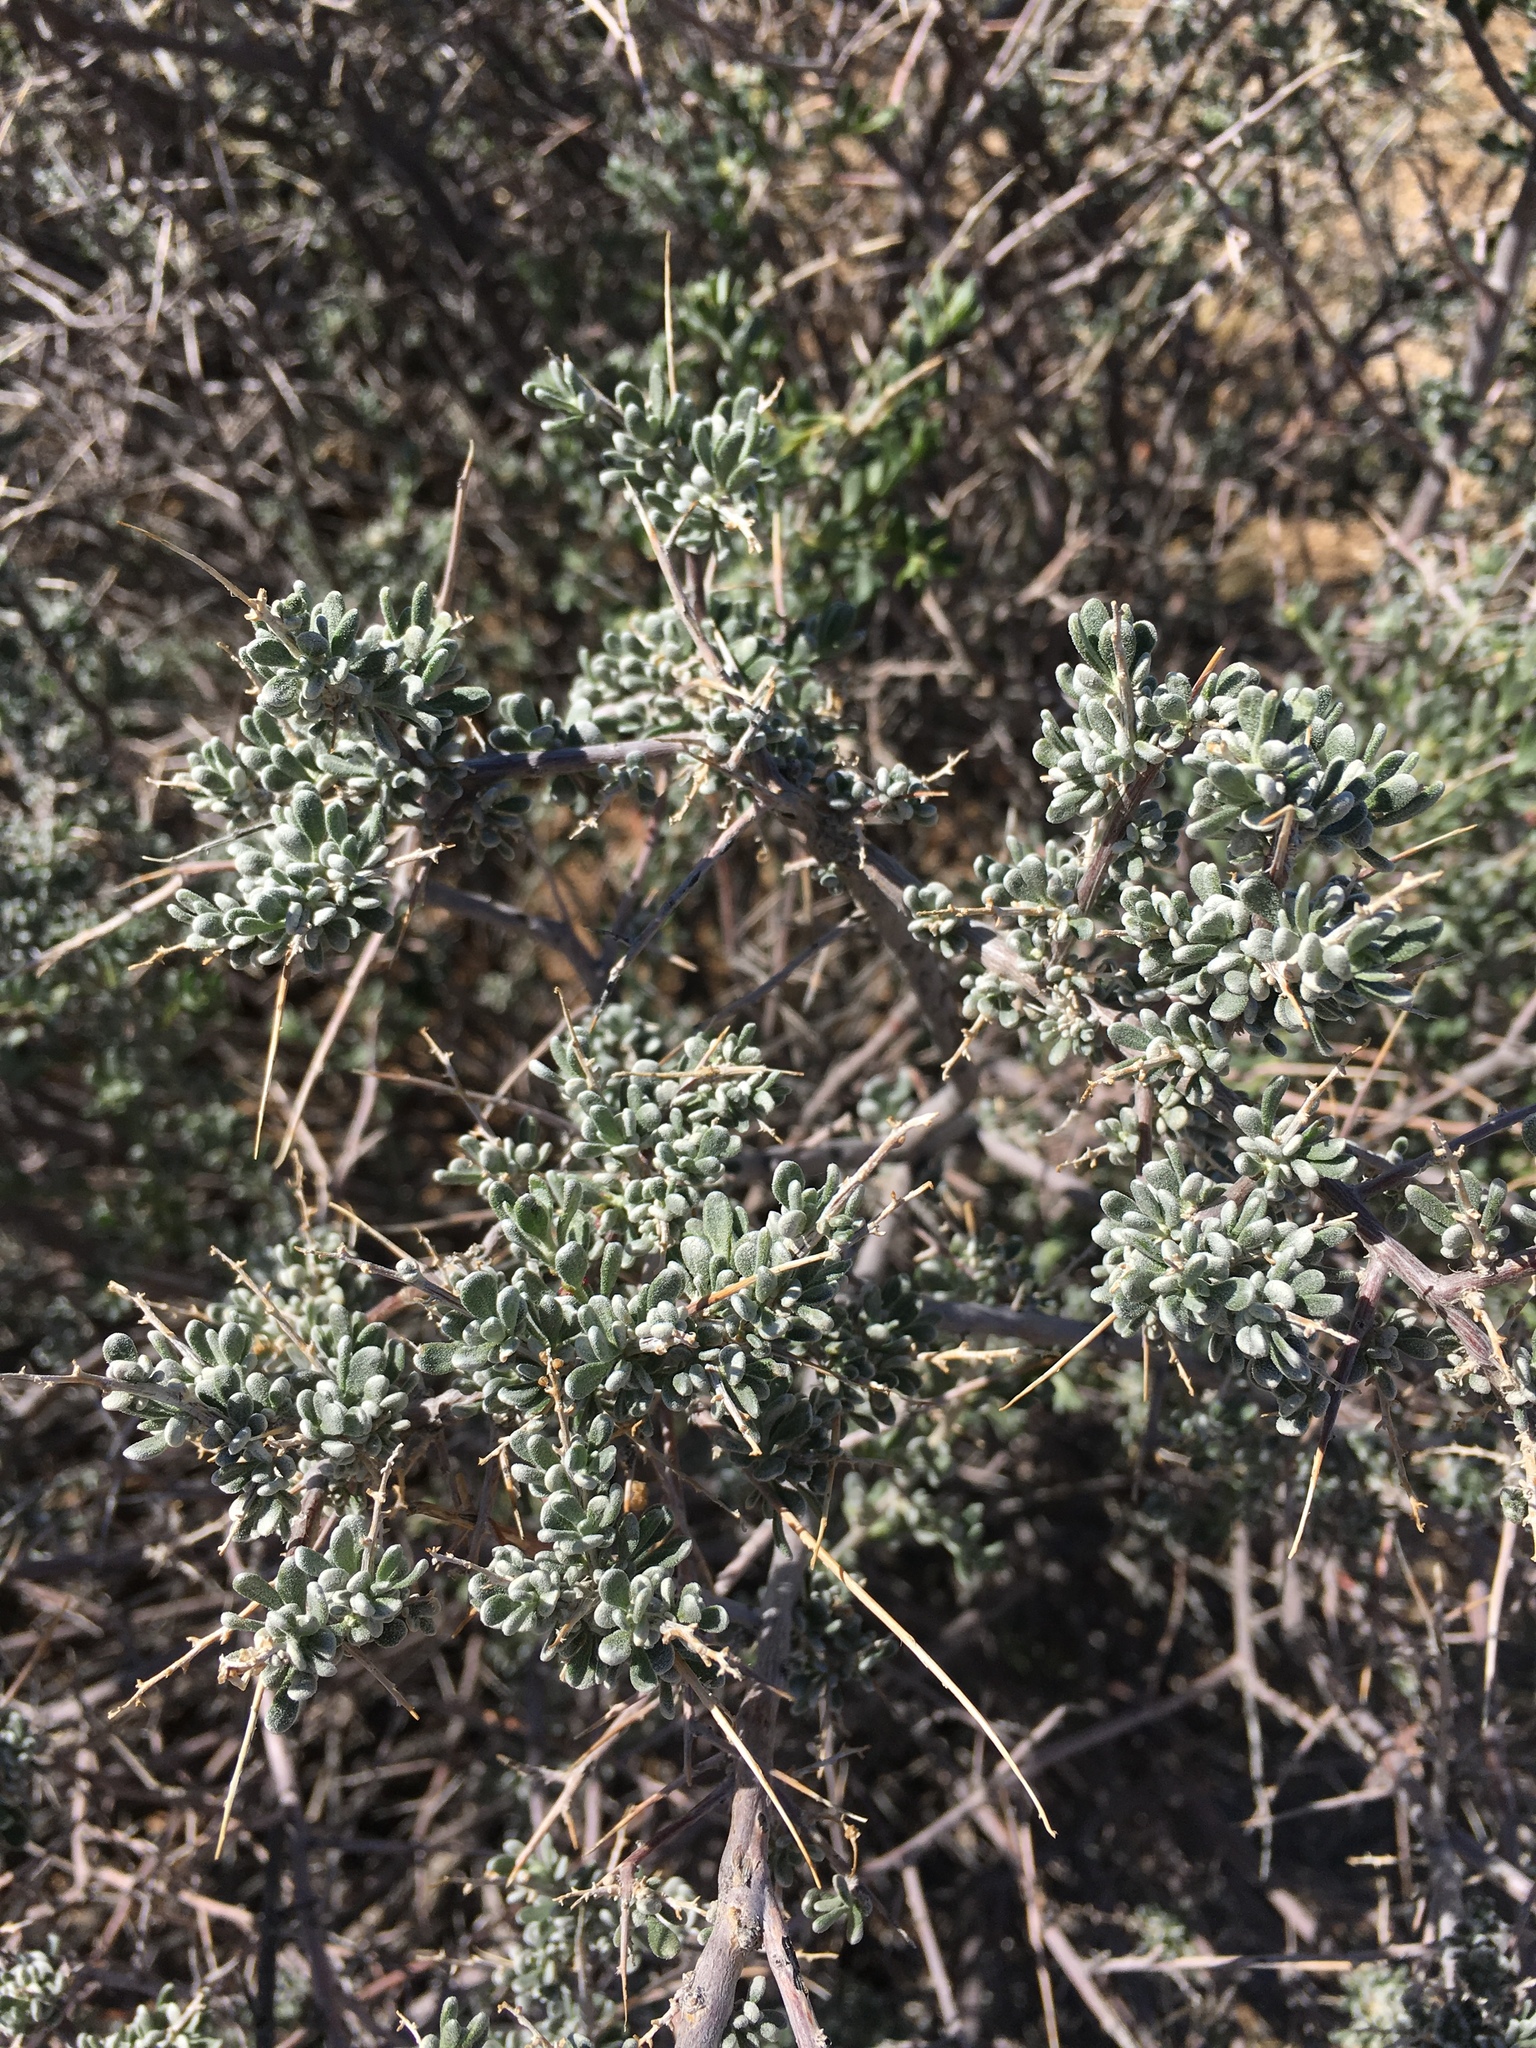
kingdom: Plantae
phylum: Tracheophyta
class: Magnoliopsida
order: Caryophyllales
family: Amaranthaceae
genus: Grayia
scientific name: Grayia spinosa
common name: Spiny hopsage
